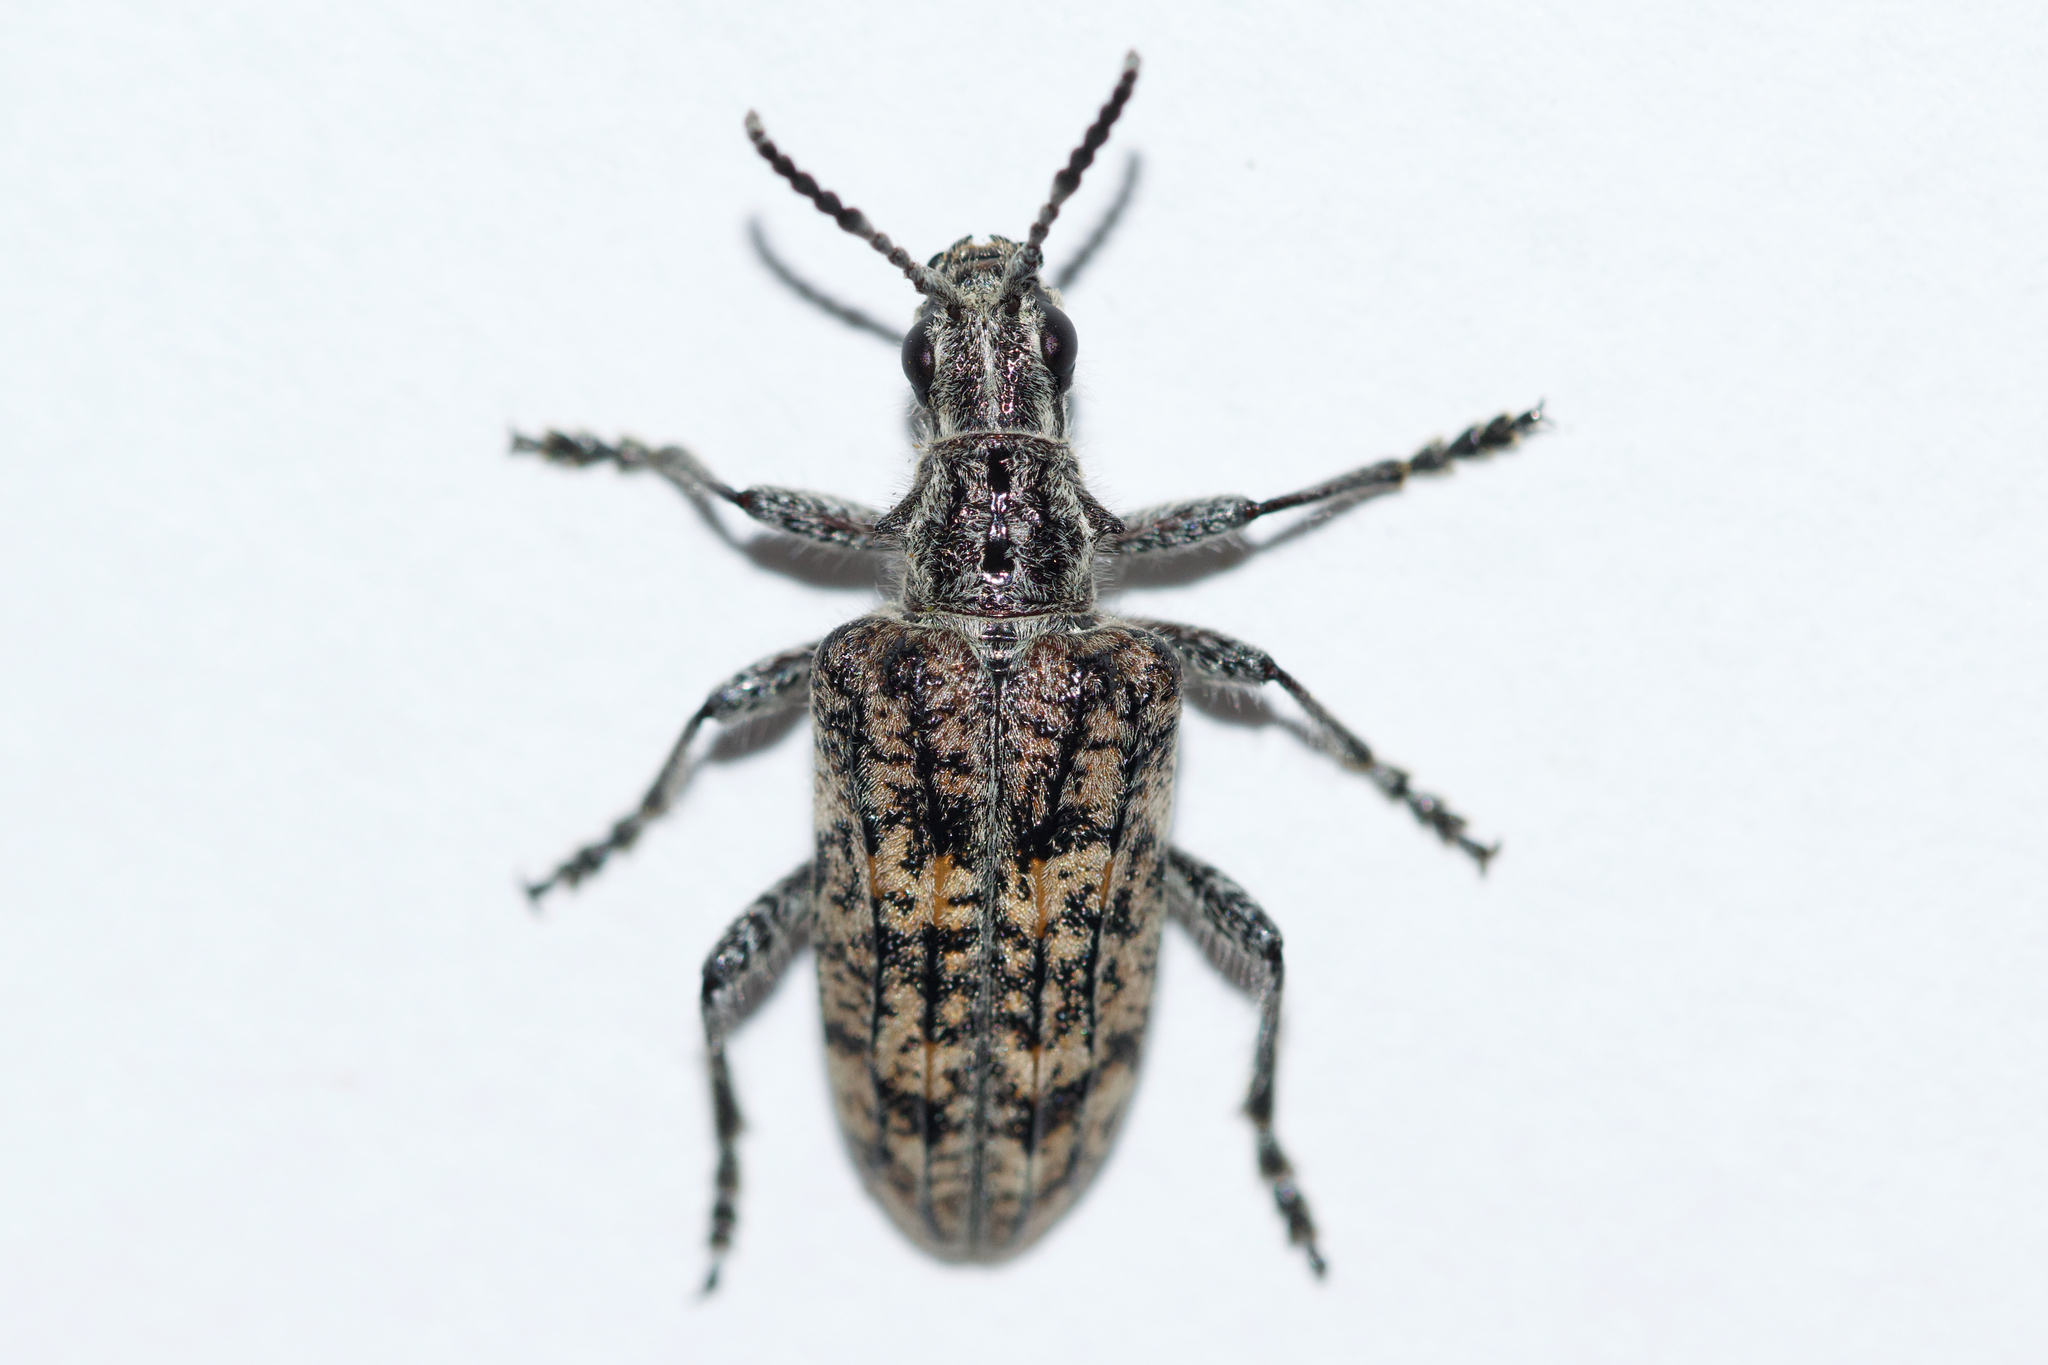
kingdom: Animalia
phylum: Arthropoda
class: Insecta
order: Coleoptera
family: Cerambycidae
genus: Rhagium
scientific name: Rhagium inquisitor
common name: Ribbed pine borer
